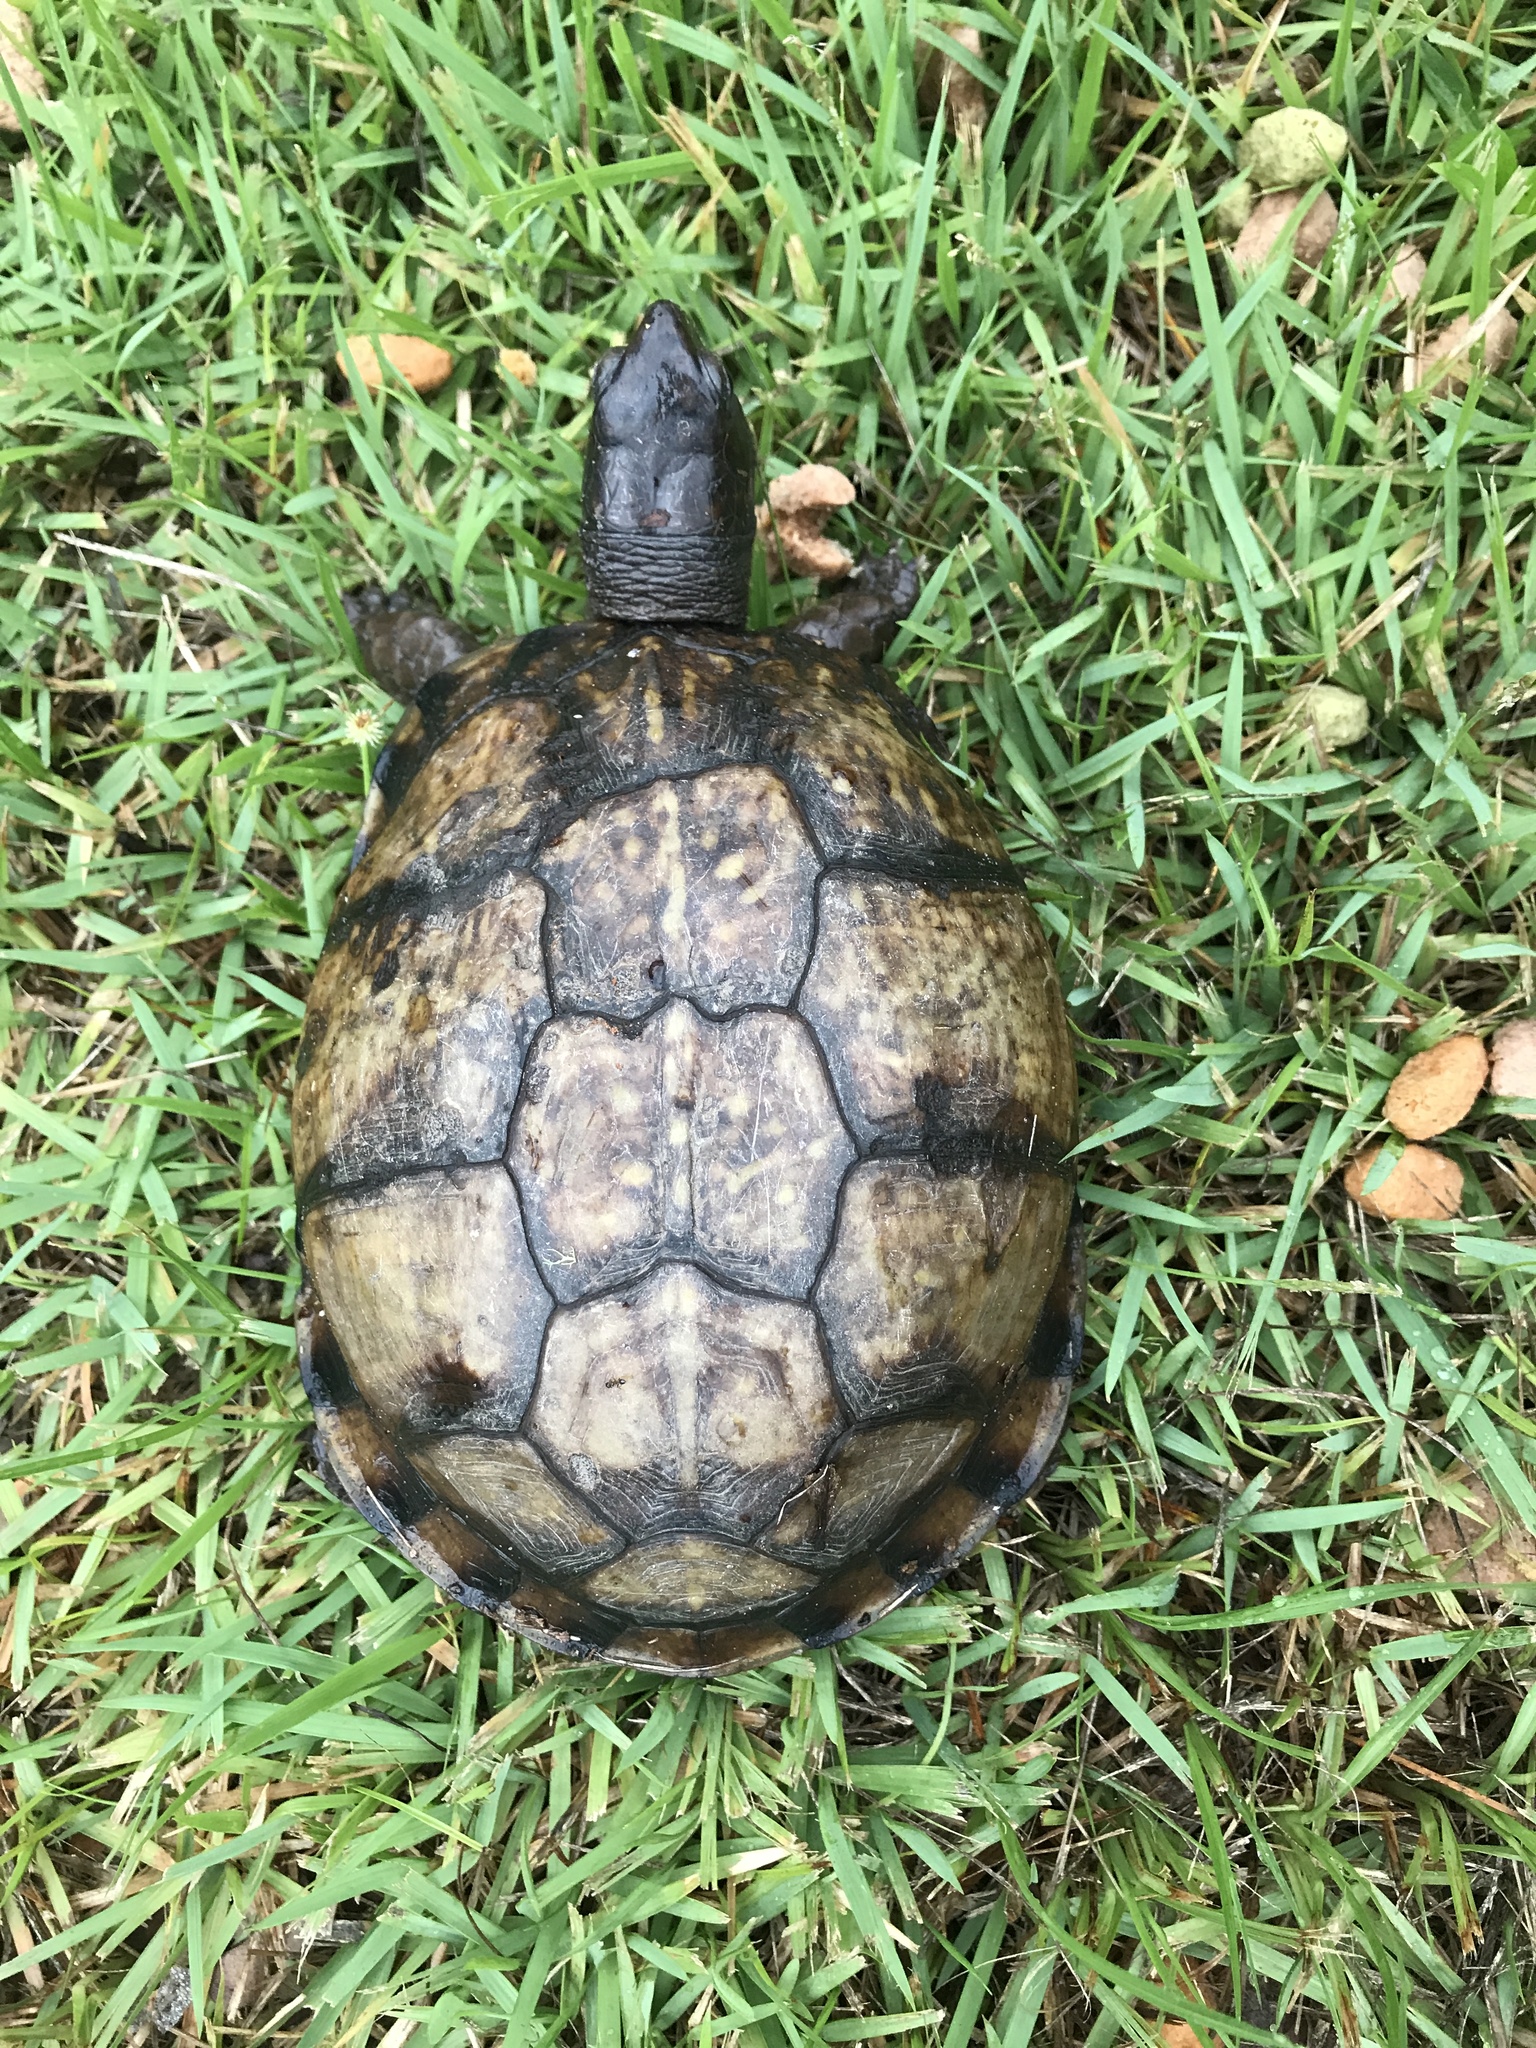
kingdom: Animalia
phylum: Chordata
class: Testudines
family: Emydidae
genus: Terrapene
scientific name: Terrapene carolina
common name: Common box turtle
